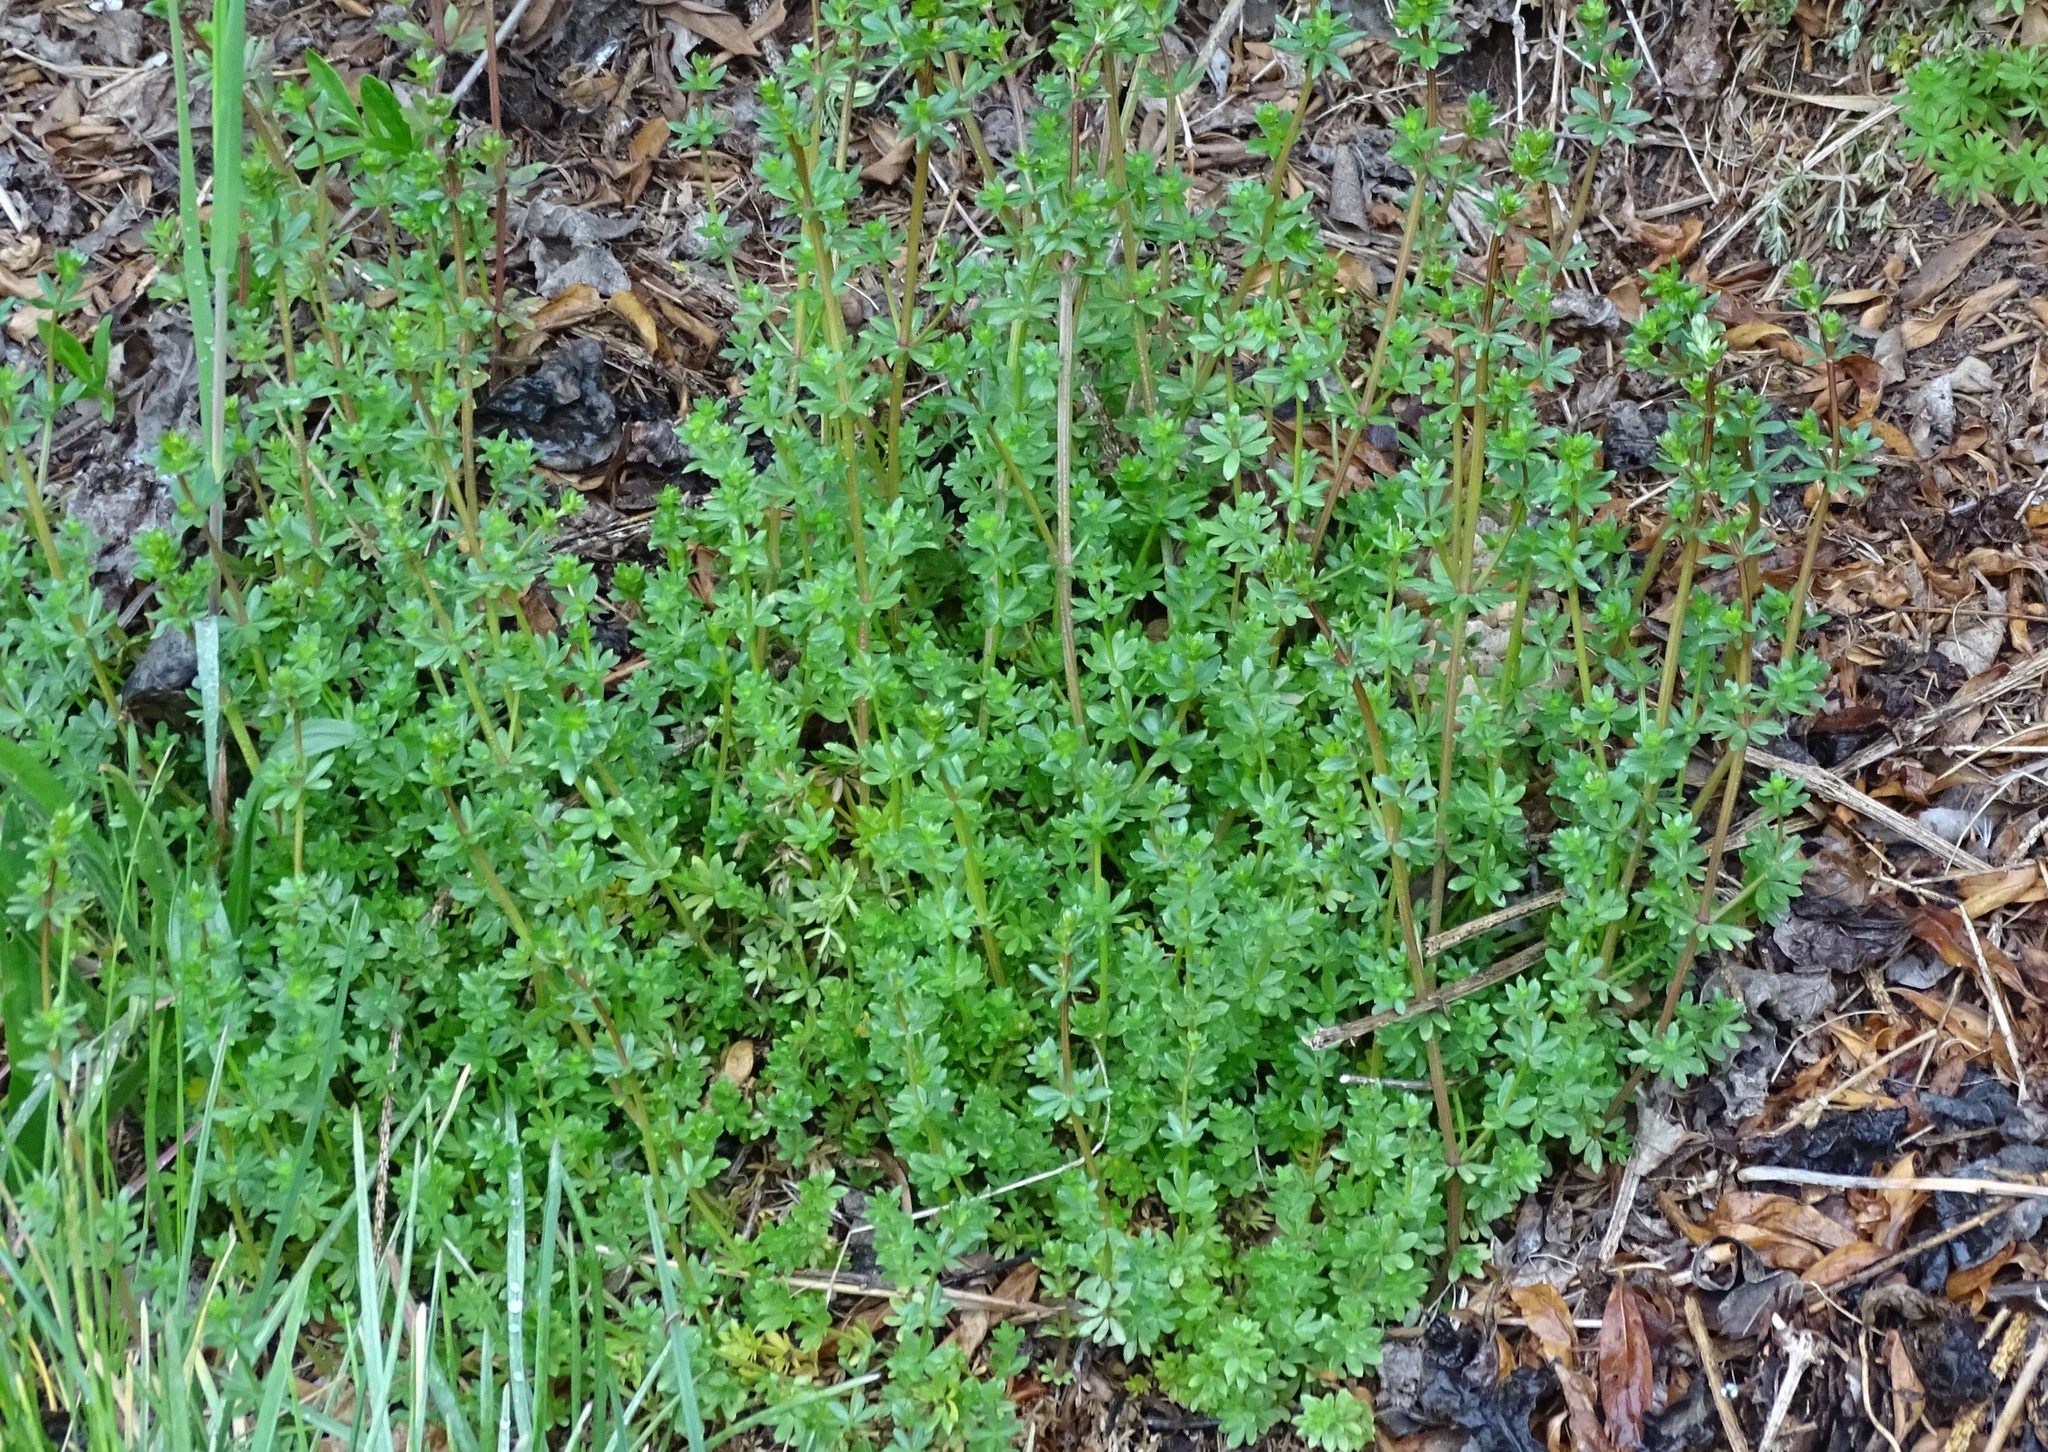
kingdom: Plantae
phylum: Tracheophyta
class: Magnoliopsida
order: Gentianales
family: Rubiaceae
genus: Galium
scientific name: Galium album
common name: White bedstraw
